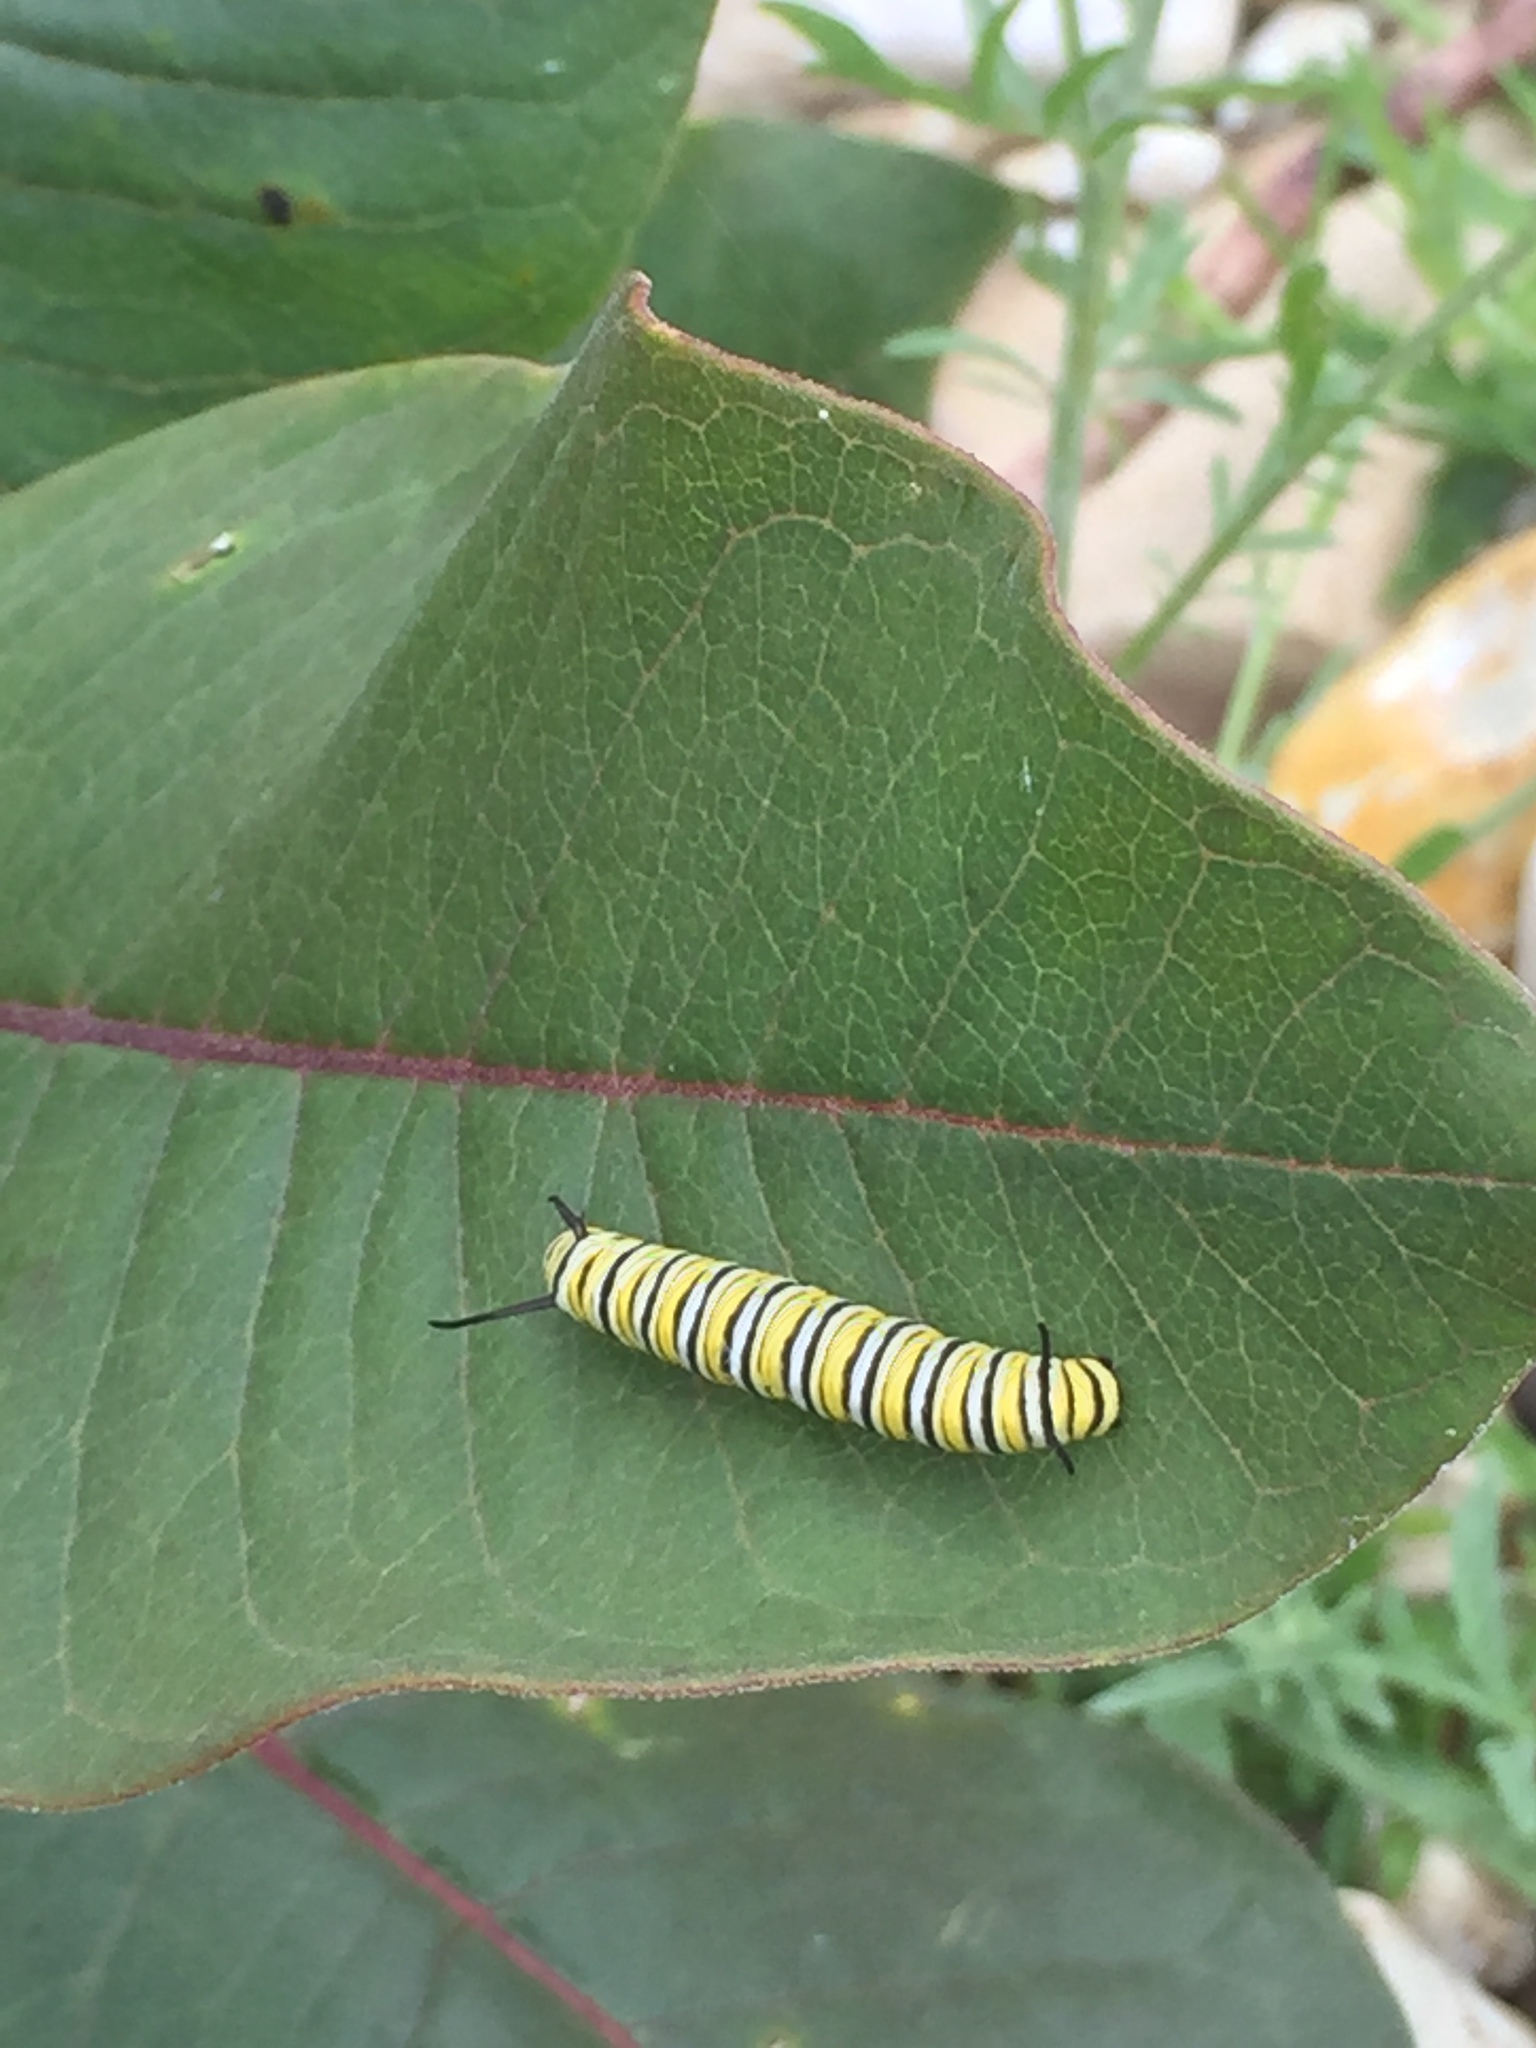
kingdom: Animalia
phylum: Arthropoda
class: Insecta
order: Lepidoptera
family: Nymphalidae
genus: Danaus
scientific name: Danaus plexippus
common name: Monarch
